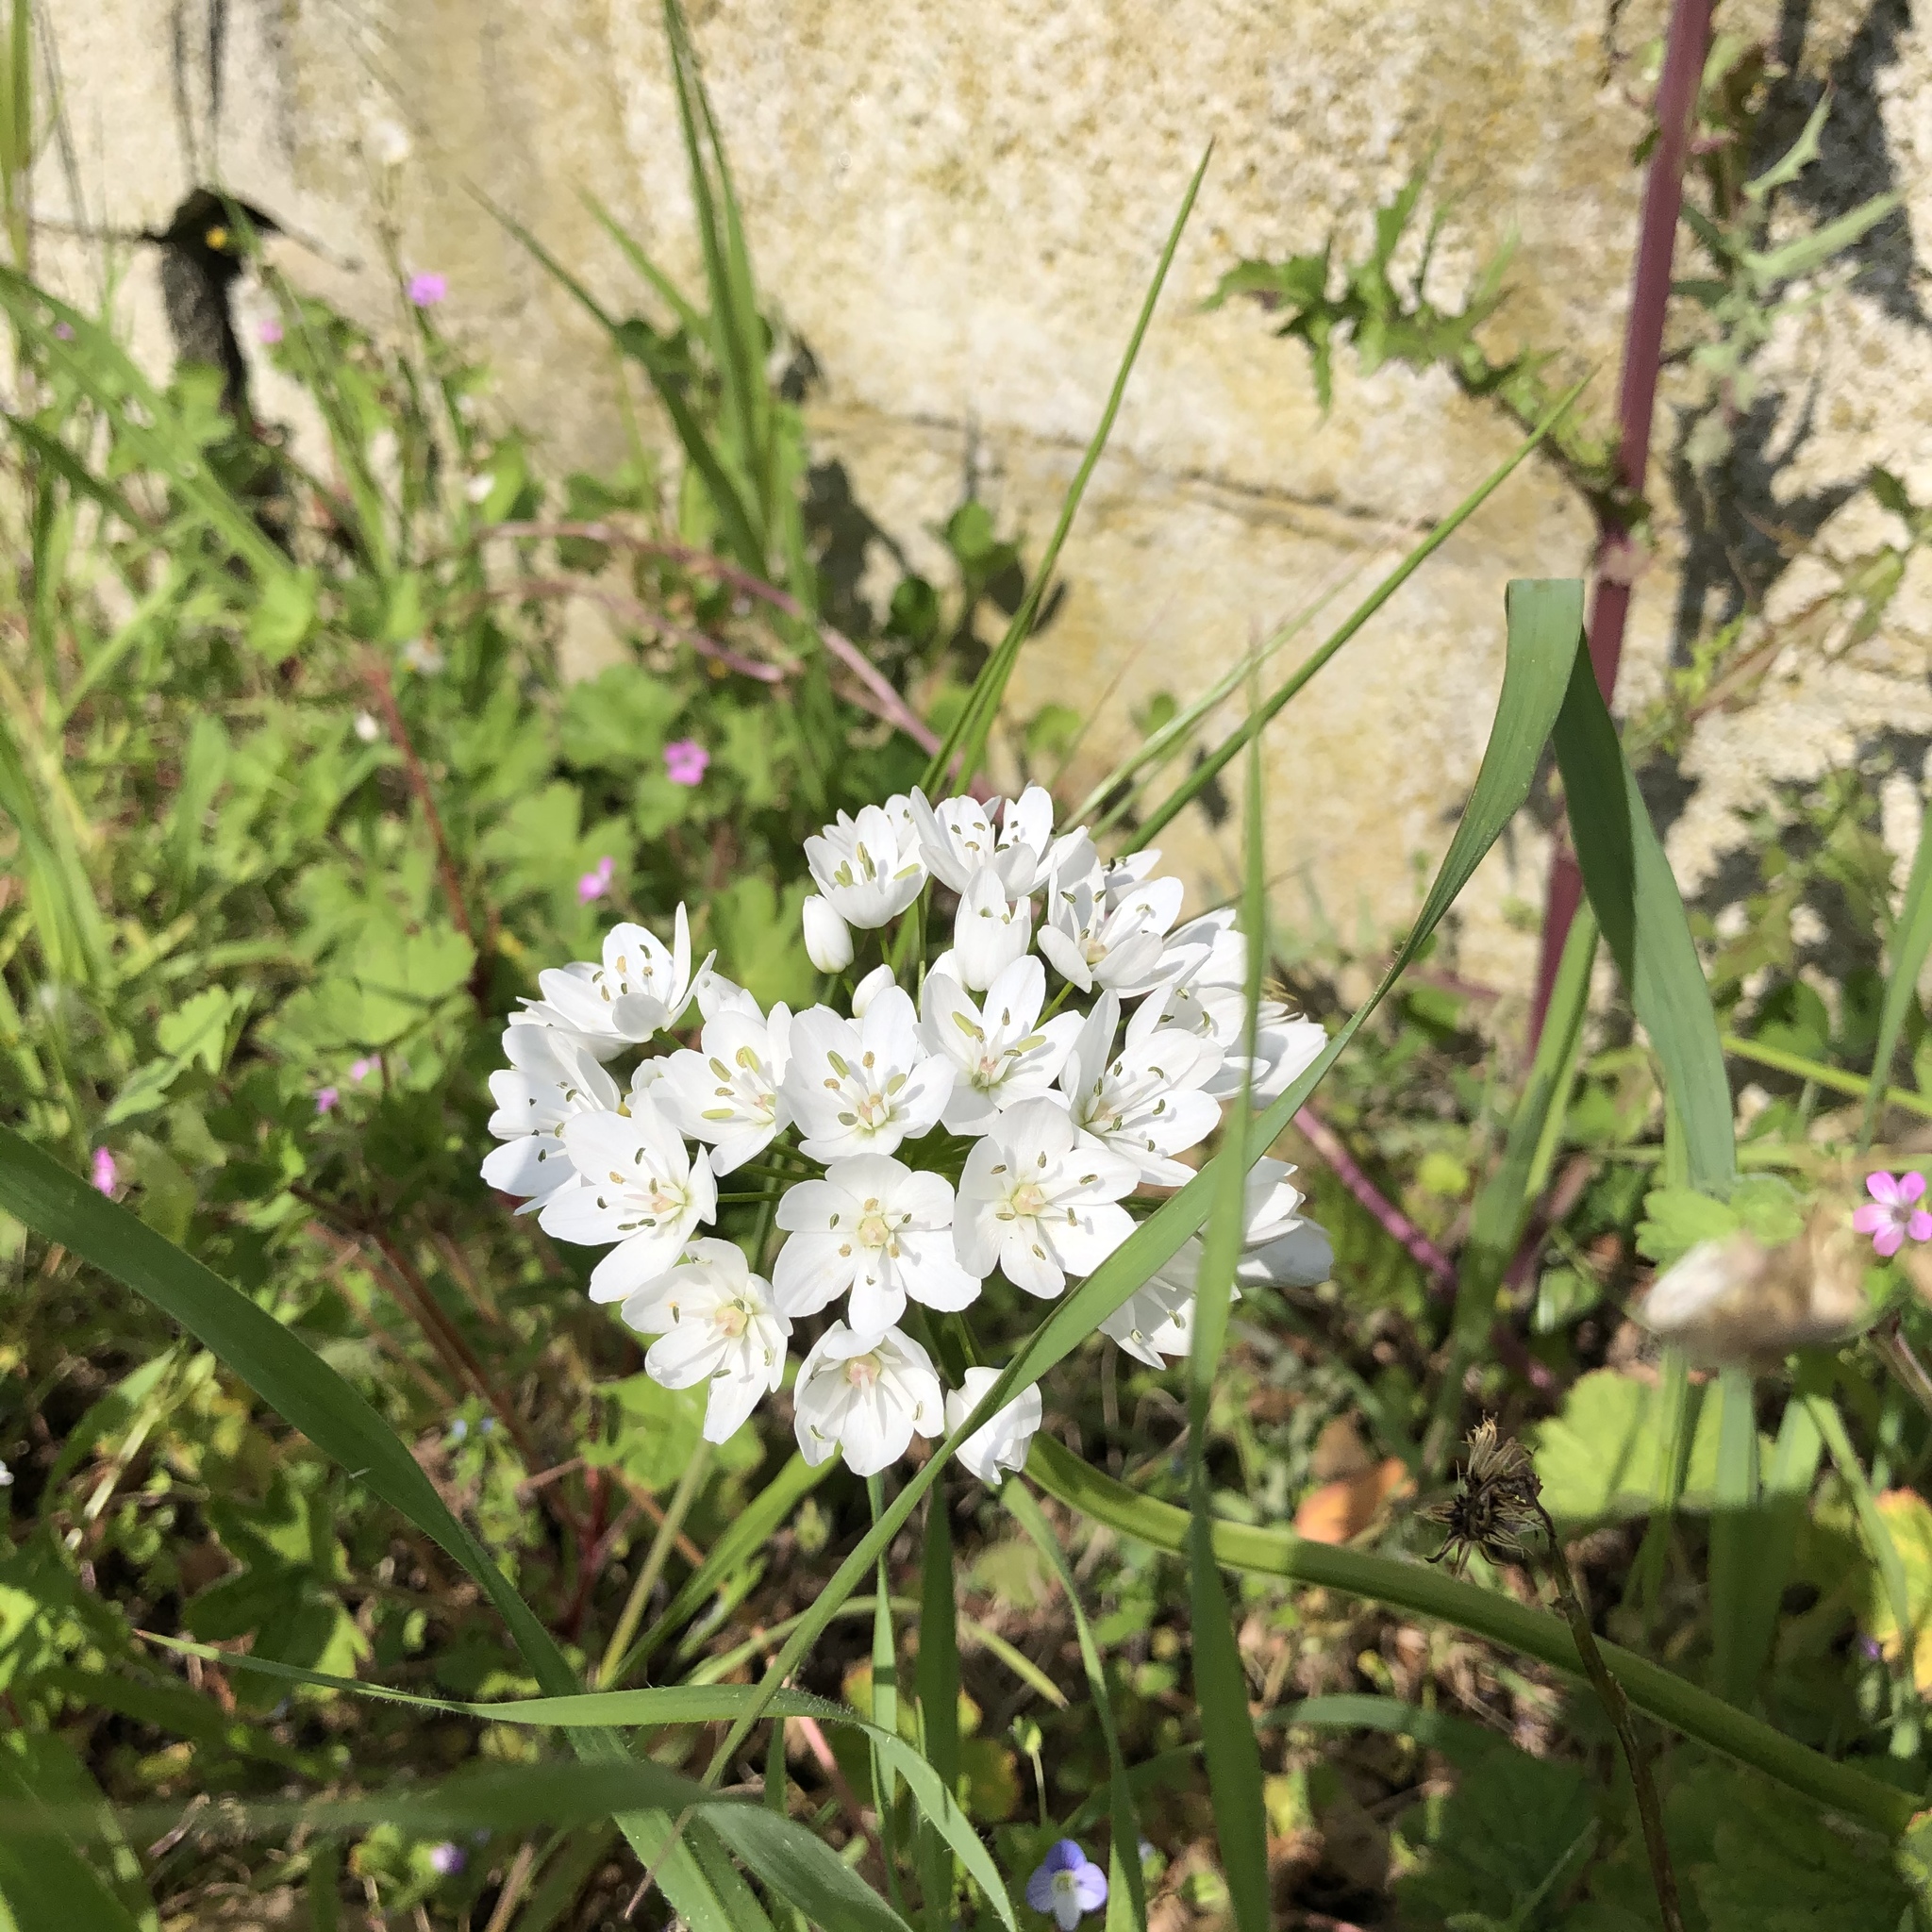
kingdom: Plantae
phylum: Tracheophyta
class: Liliopsida
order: Asparagales
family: Amaryllidaceae
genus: Allium
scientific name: Allium neapolitanum
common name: Neapolitan garlic
